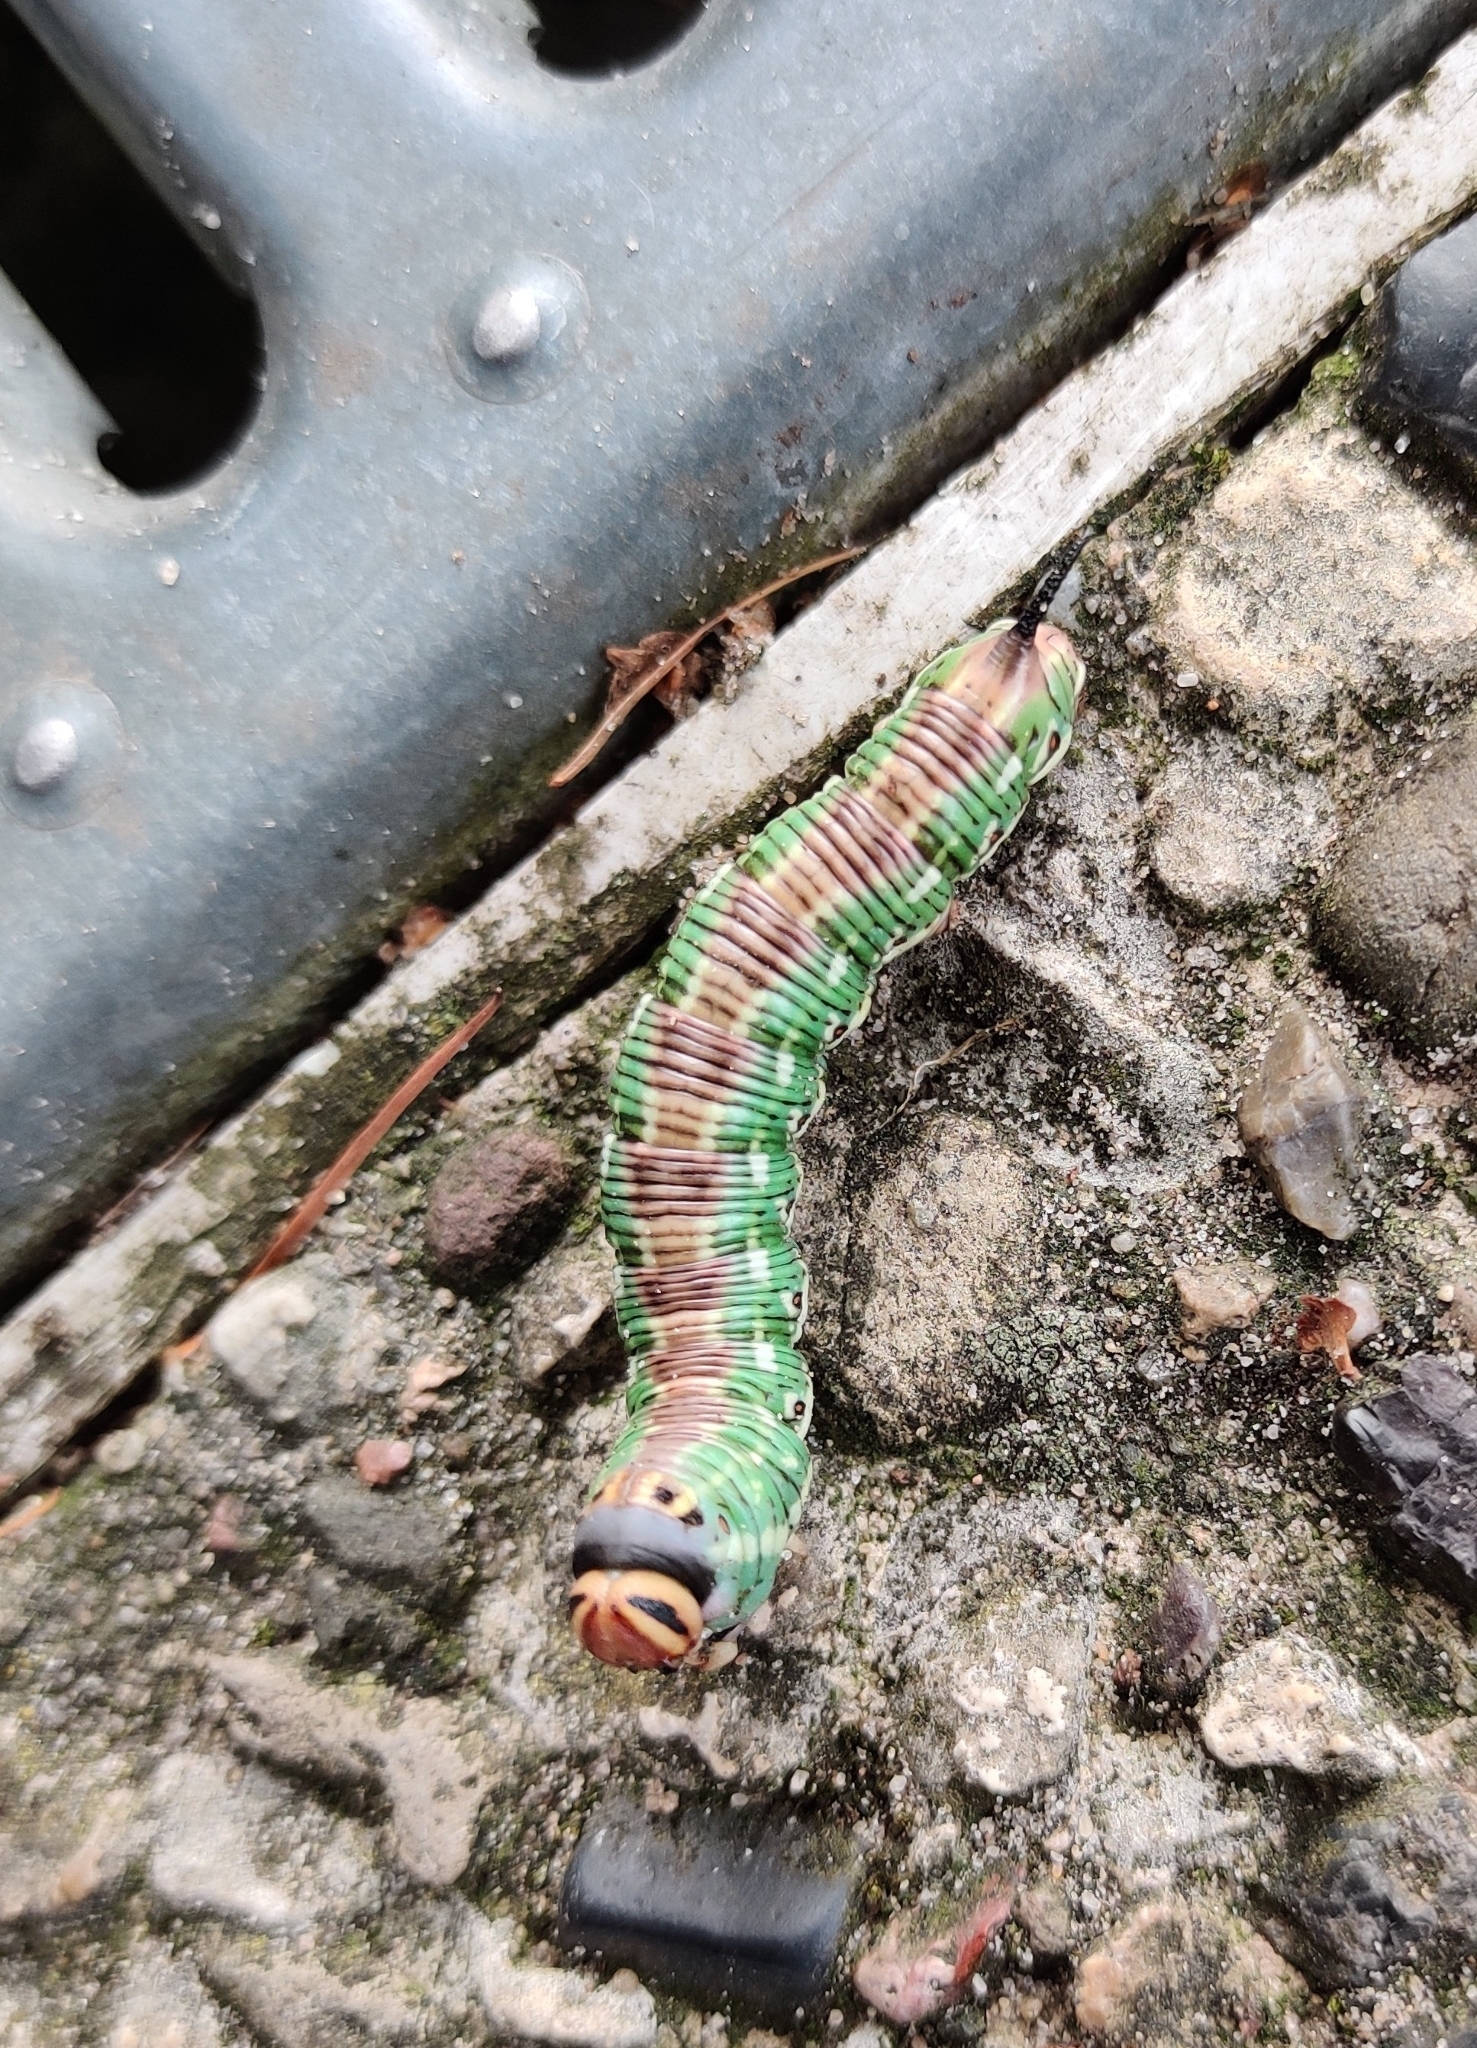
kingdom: Animalia
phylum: Arthropoda
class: Insecta
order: Lepidoptera
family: Sphingidae
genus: Sphinx
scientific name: Sphinx pinastri
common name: Pine hawk-moth
